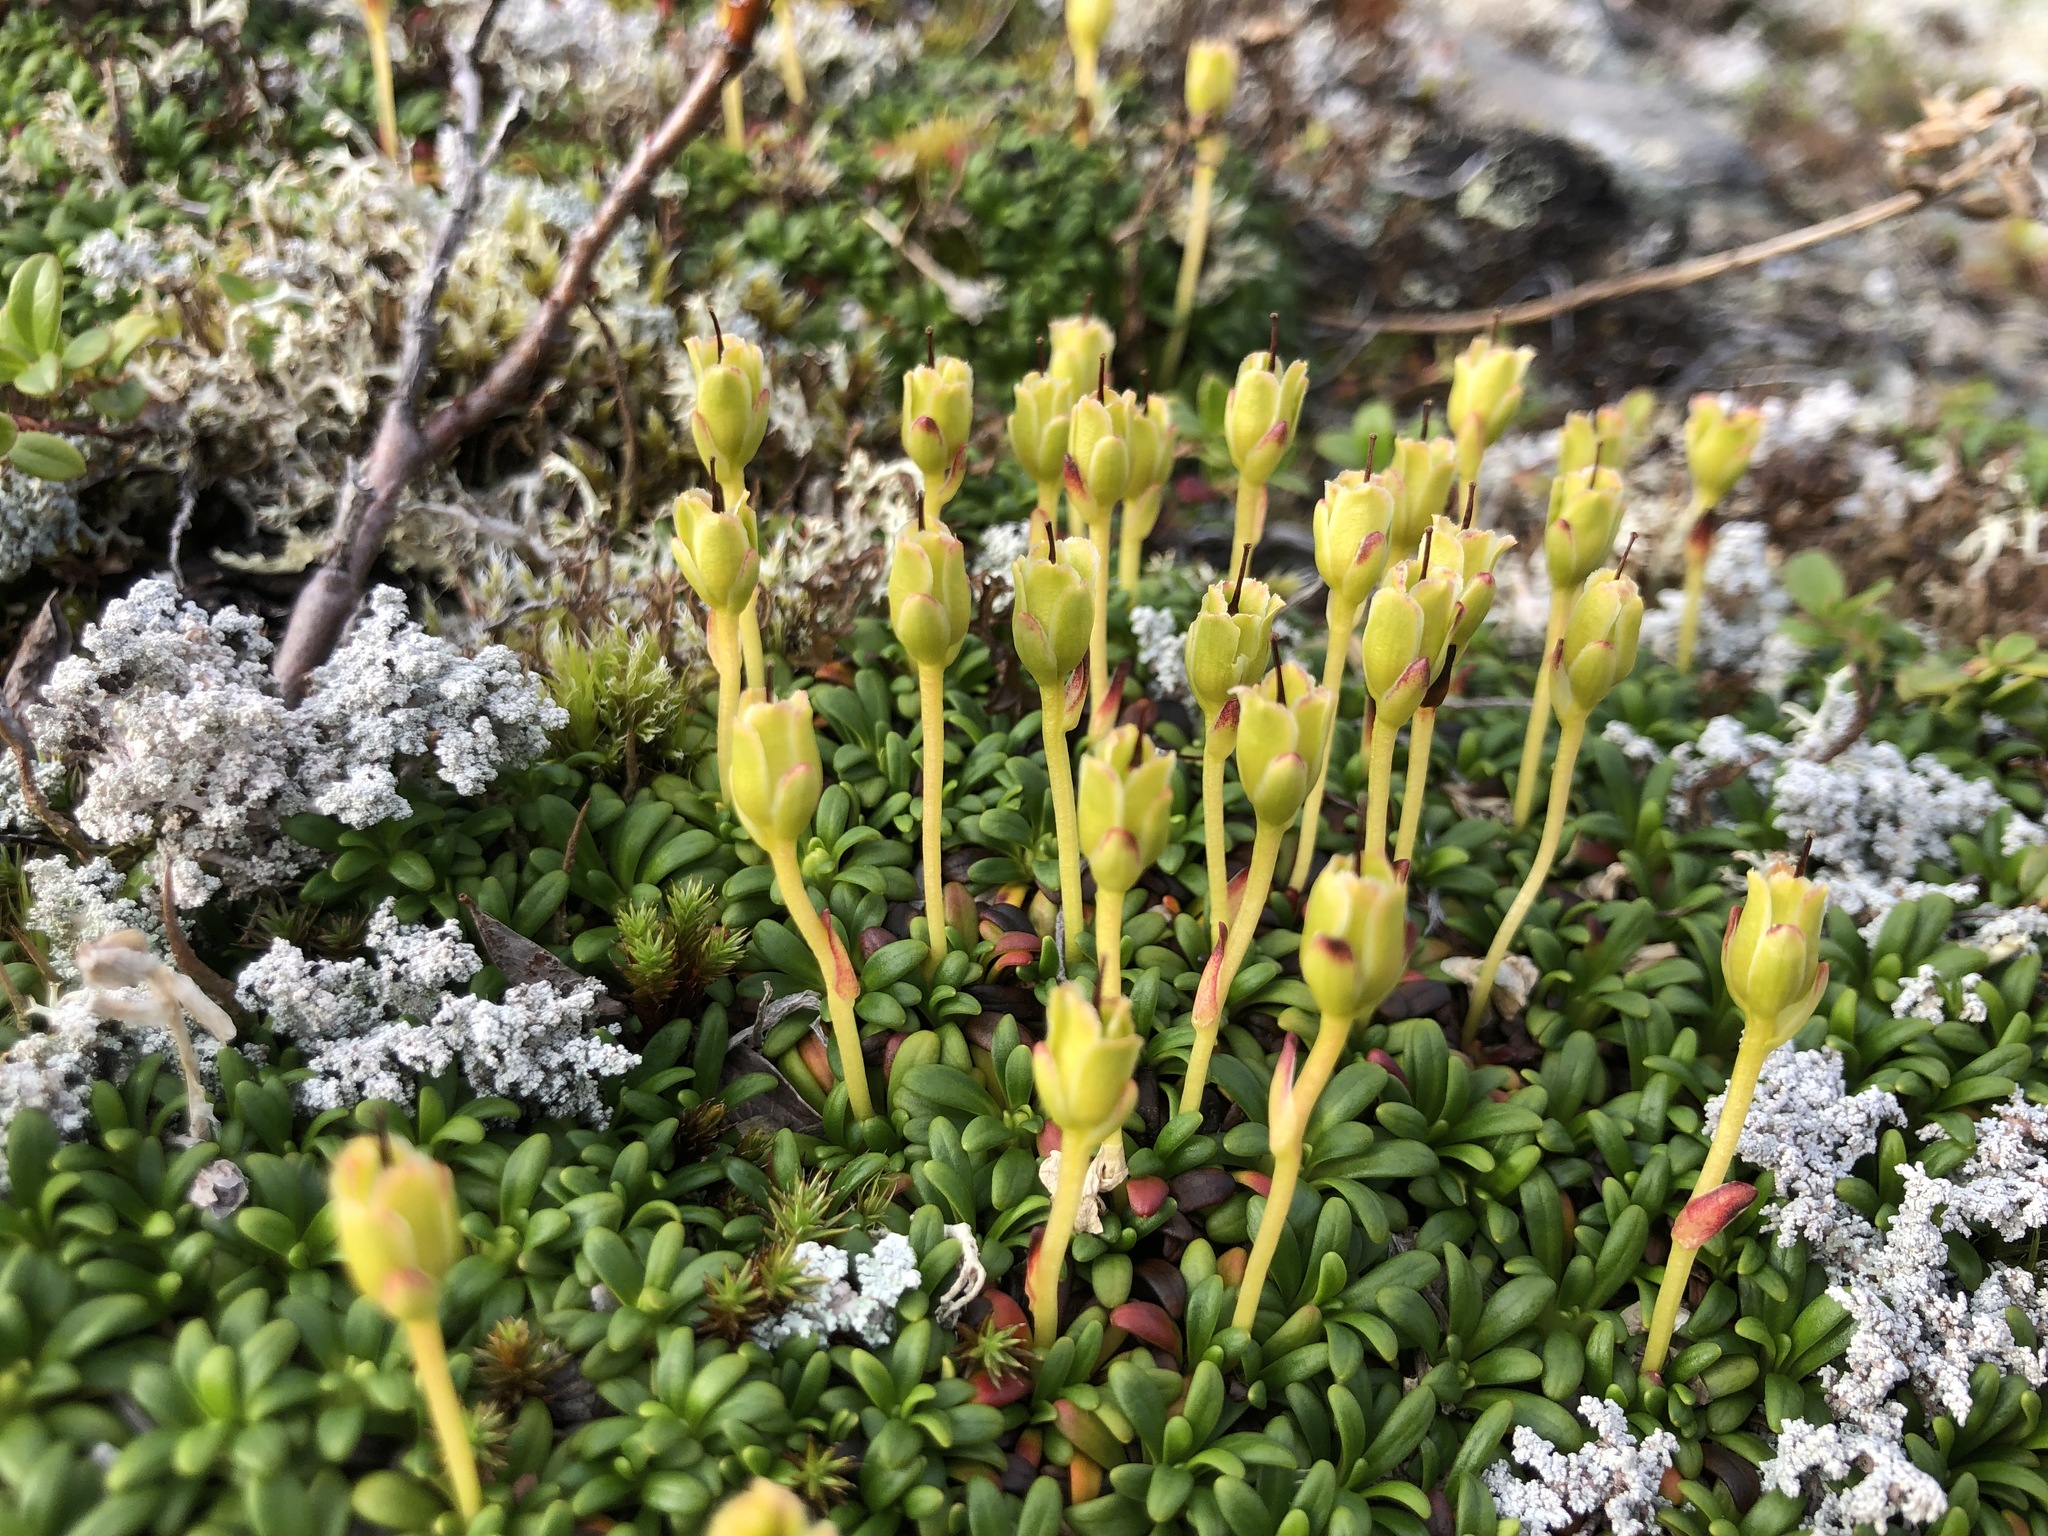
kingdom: Plantae
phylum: Tracheophyta
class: Magnoliopsida
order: Ericales
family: Diapensiaceae
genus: Diapensia
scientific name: Diapensia lapponica
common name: Diapensia
